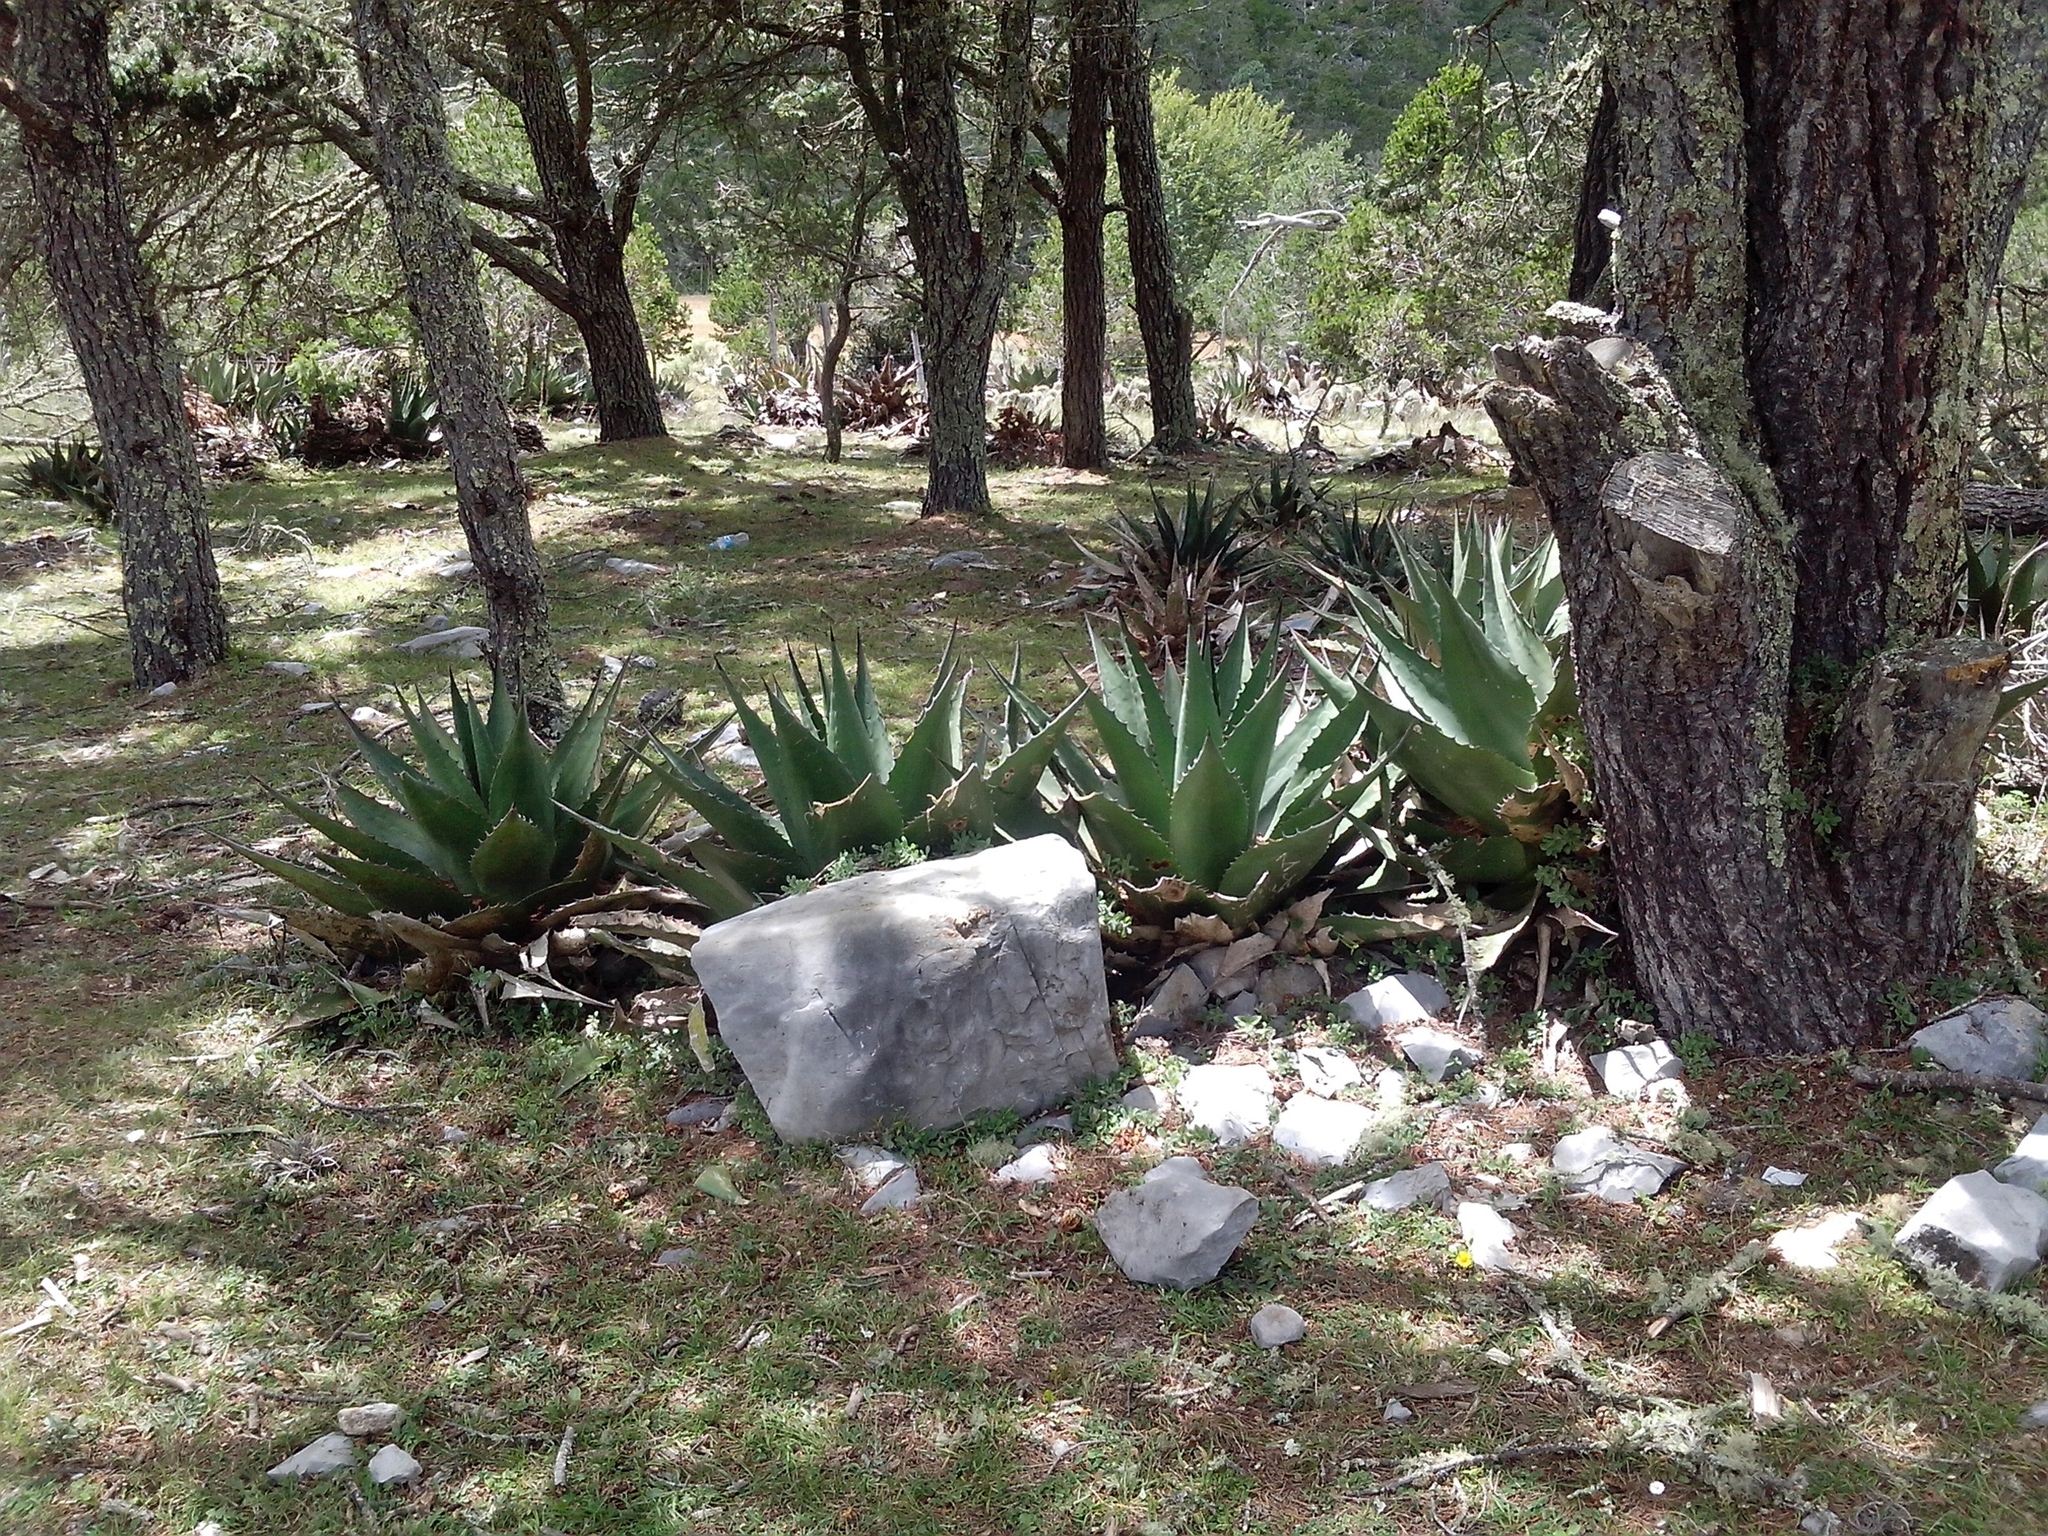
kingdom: Plantae
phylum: Tracheophyta
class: Liliopsida
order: Asparagales
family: Asparagaceae
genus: Agave
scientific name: Agave gentryi
